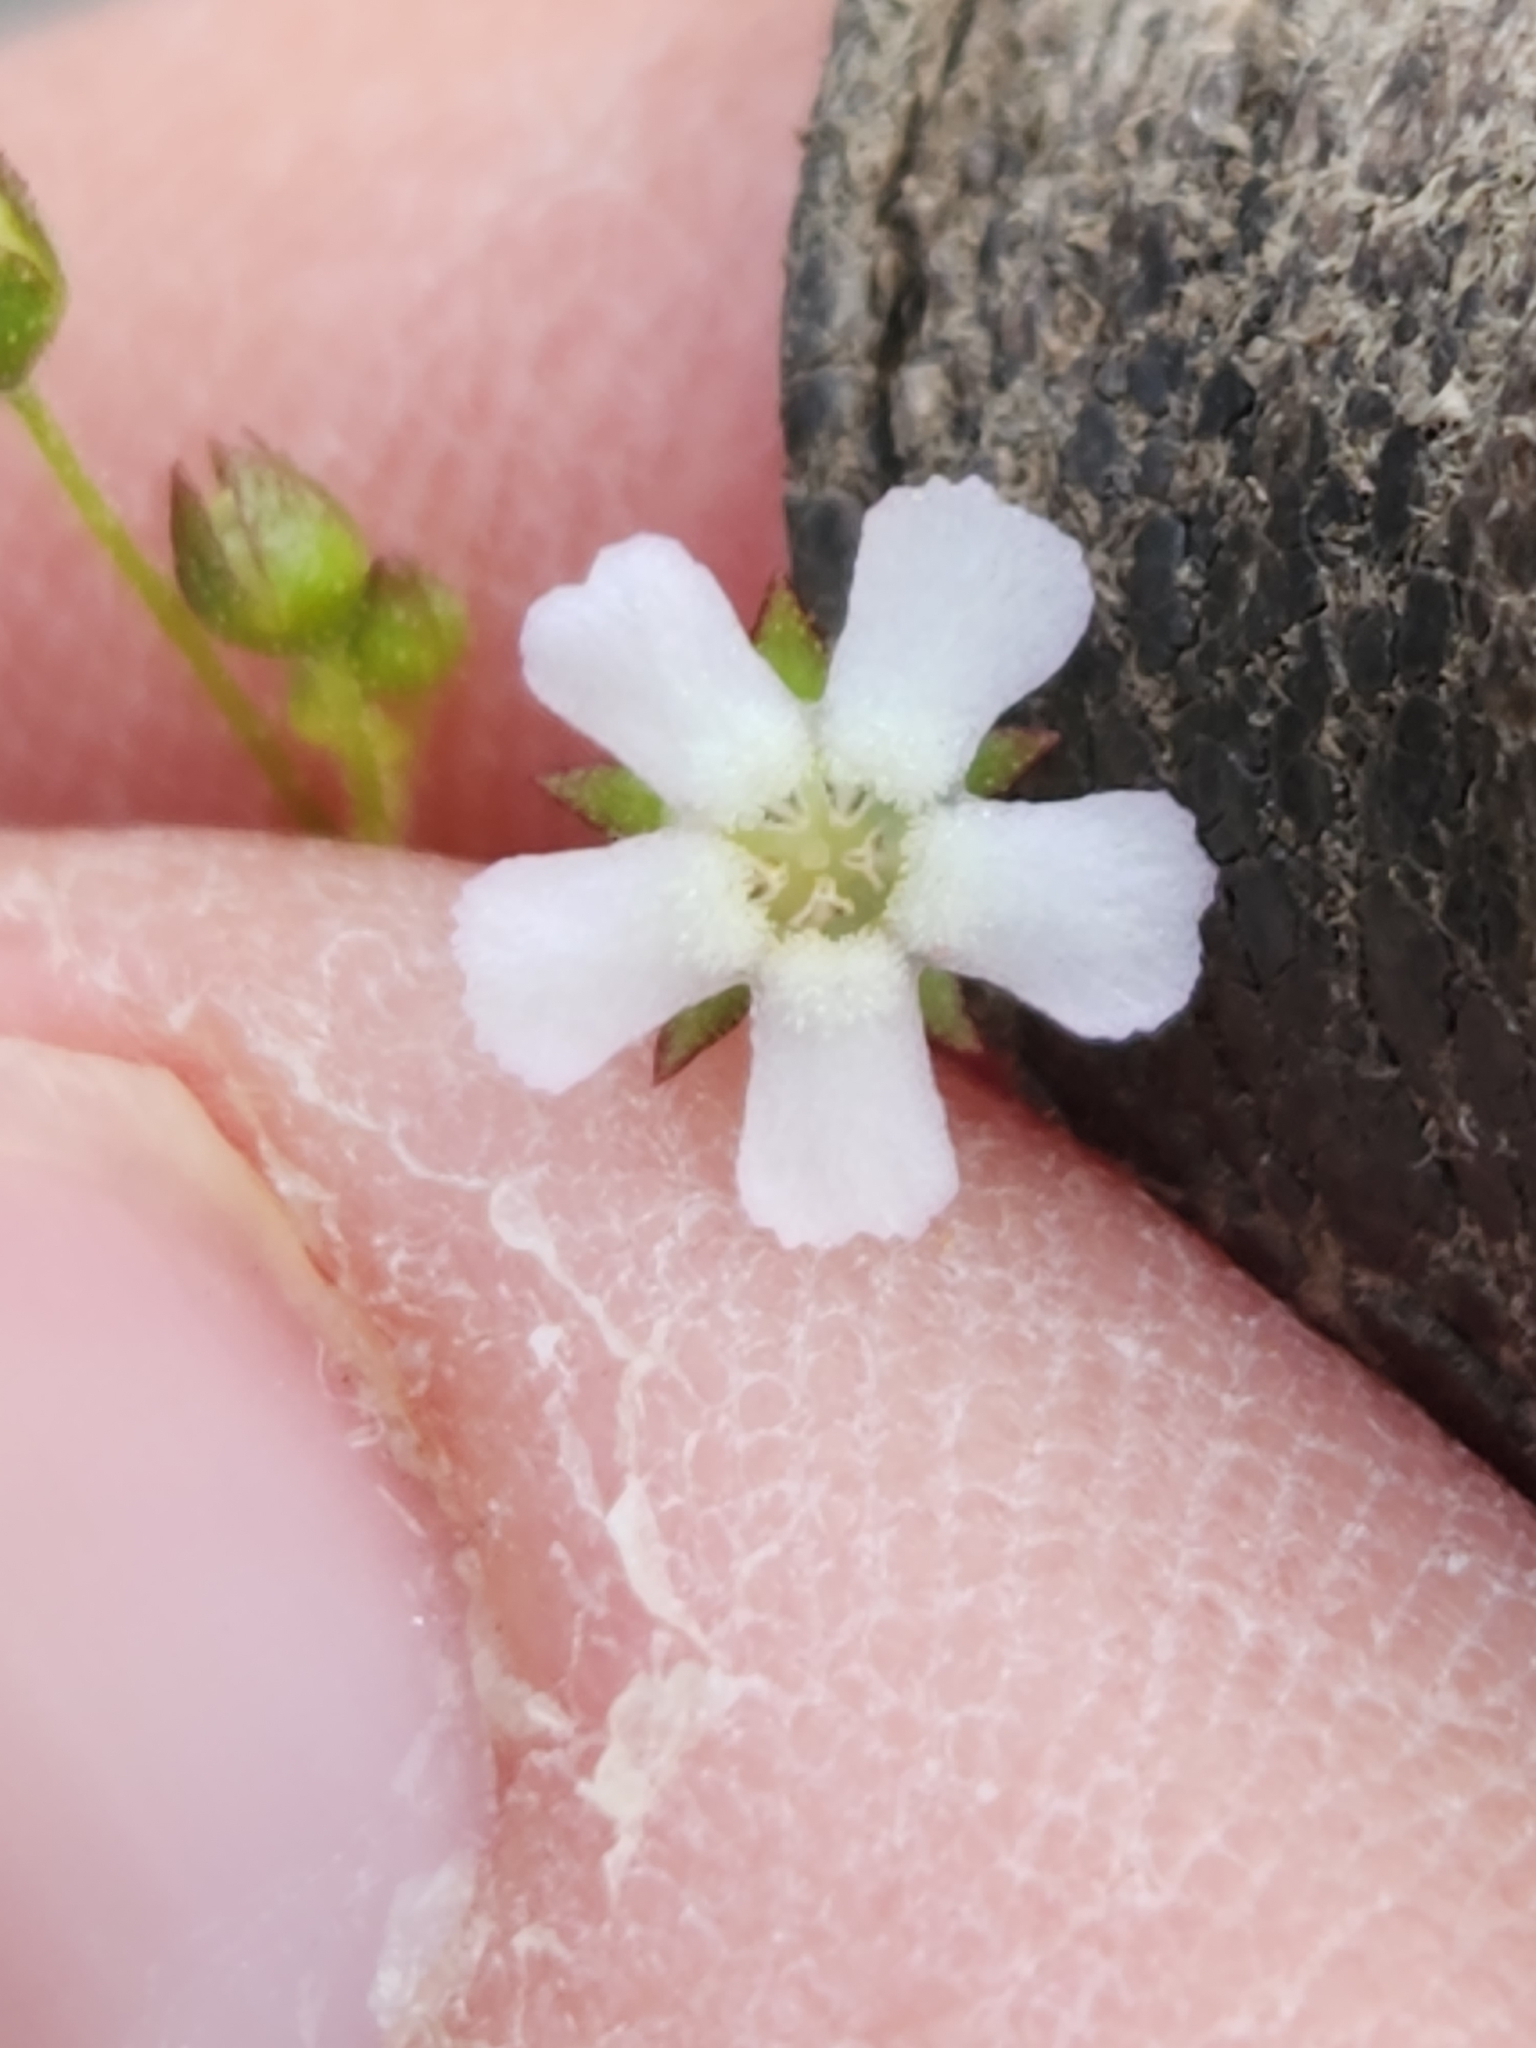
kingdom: Plantae
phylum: Tracheophyta
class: Magnoliopsida
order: Ericales
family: Primulaceae
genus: Samolus
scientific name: Samolus ebracteatus
